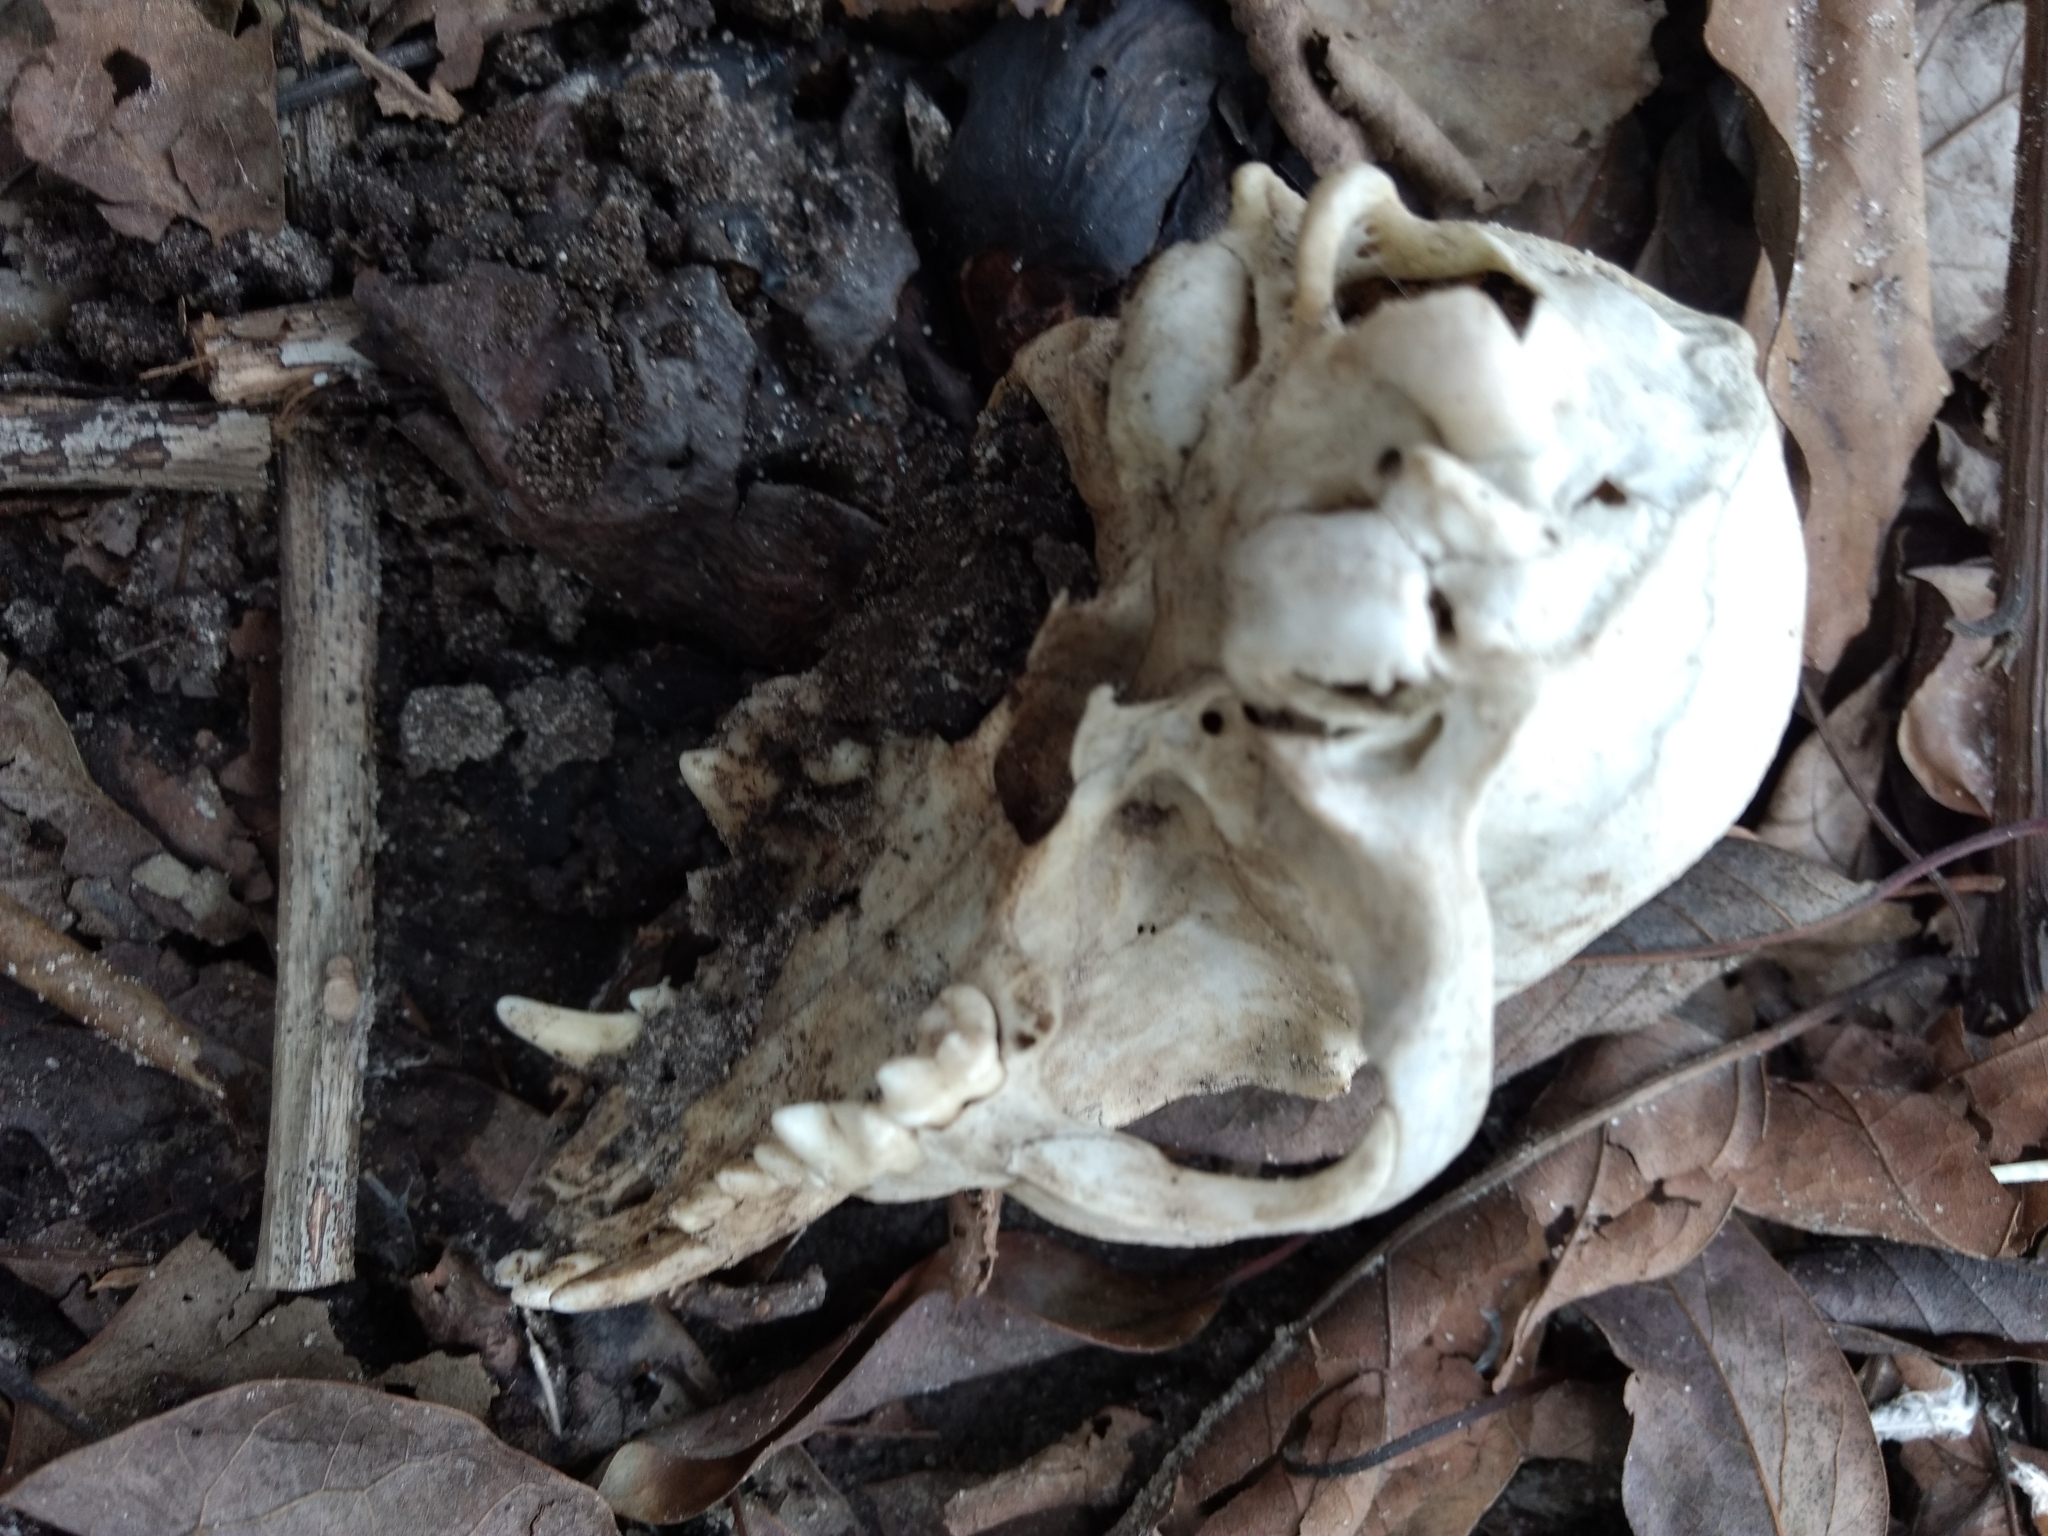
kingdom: Animalia
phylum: Chordata
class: Mammalia
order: Carnivora
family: Canidae
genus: Canis
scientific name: Canis lupus
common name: Gray wolf
